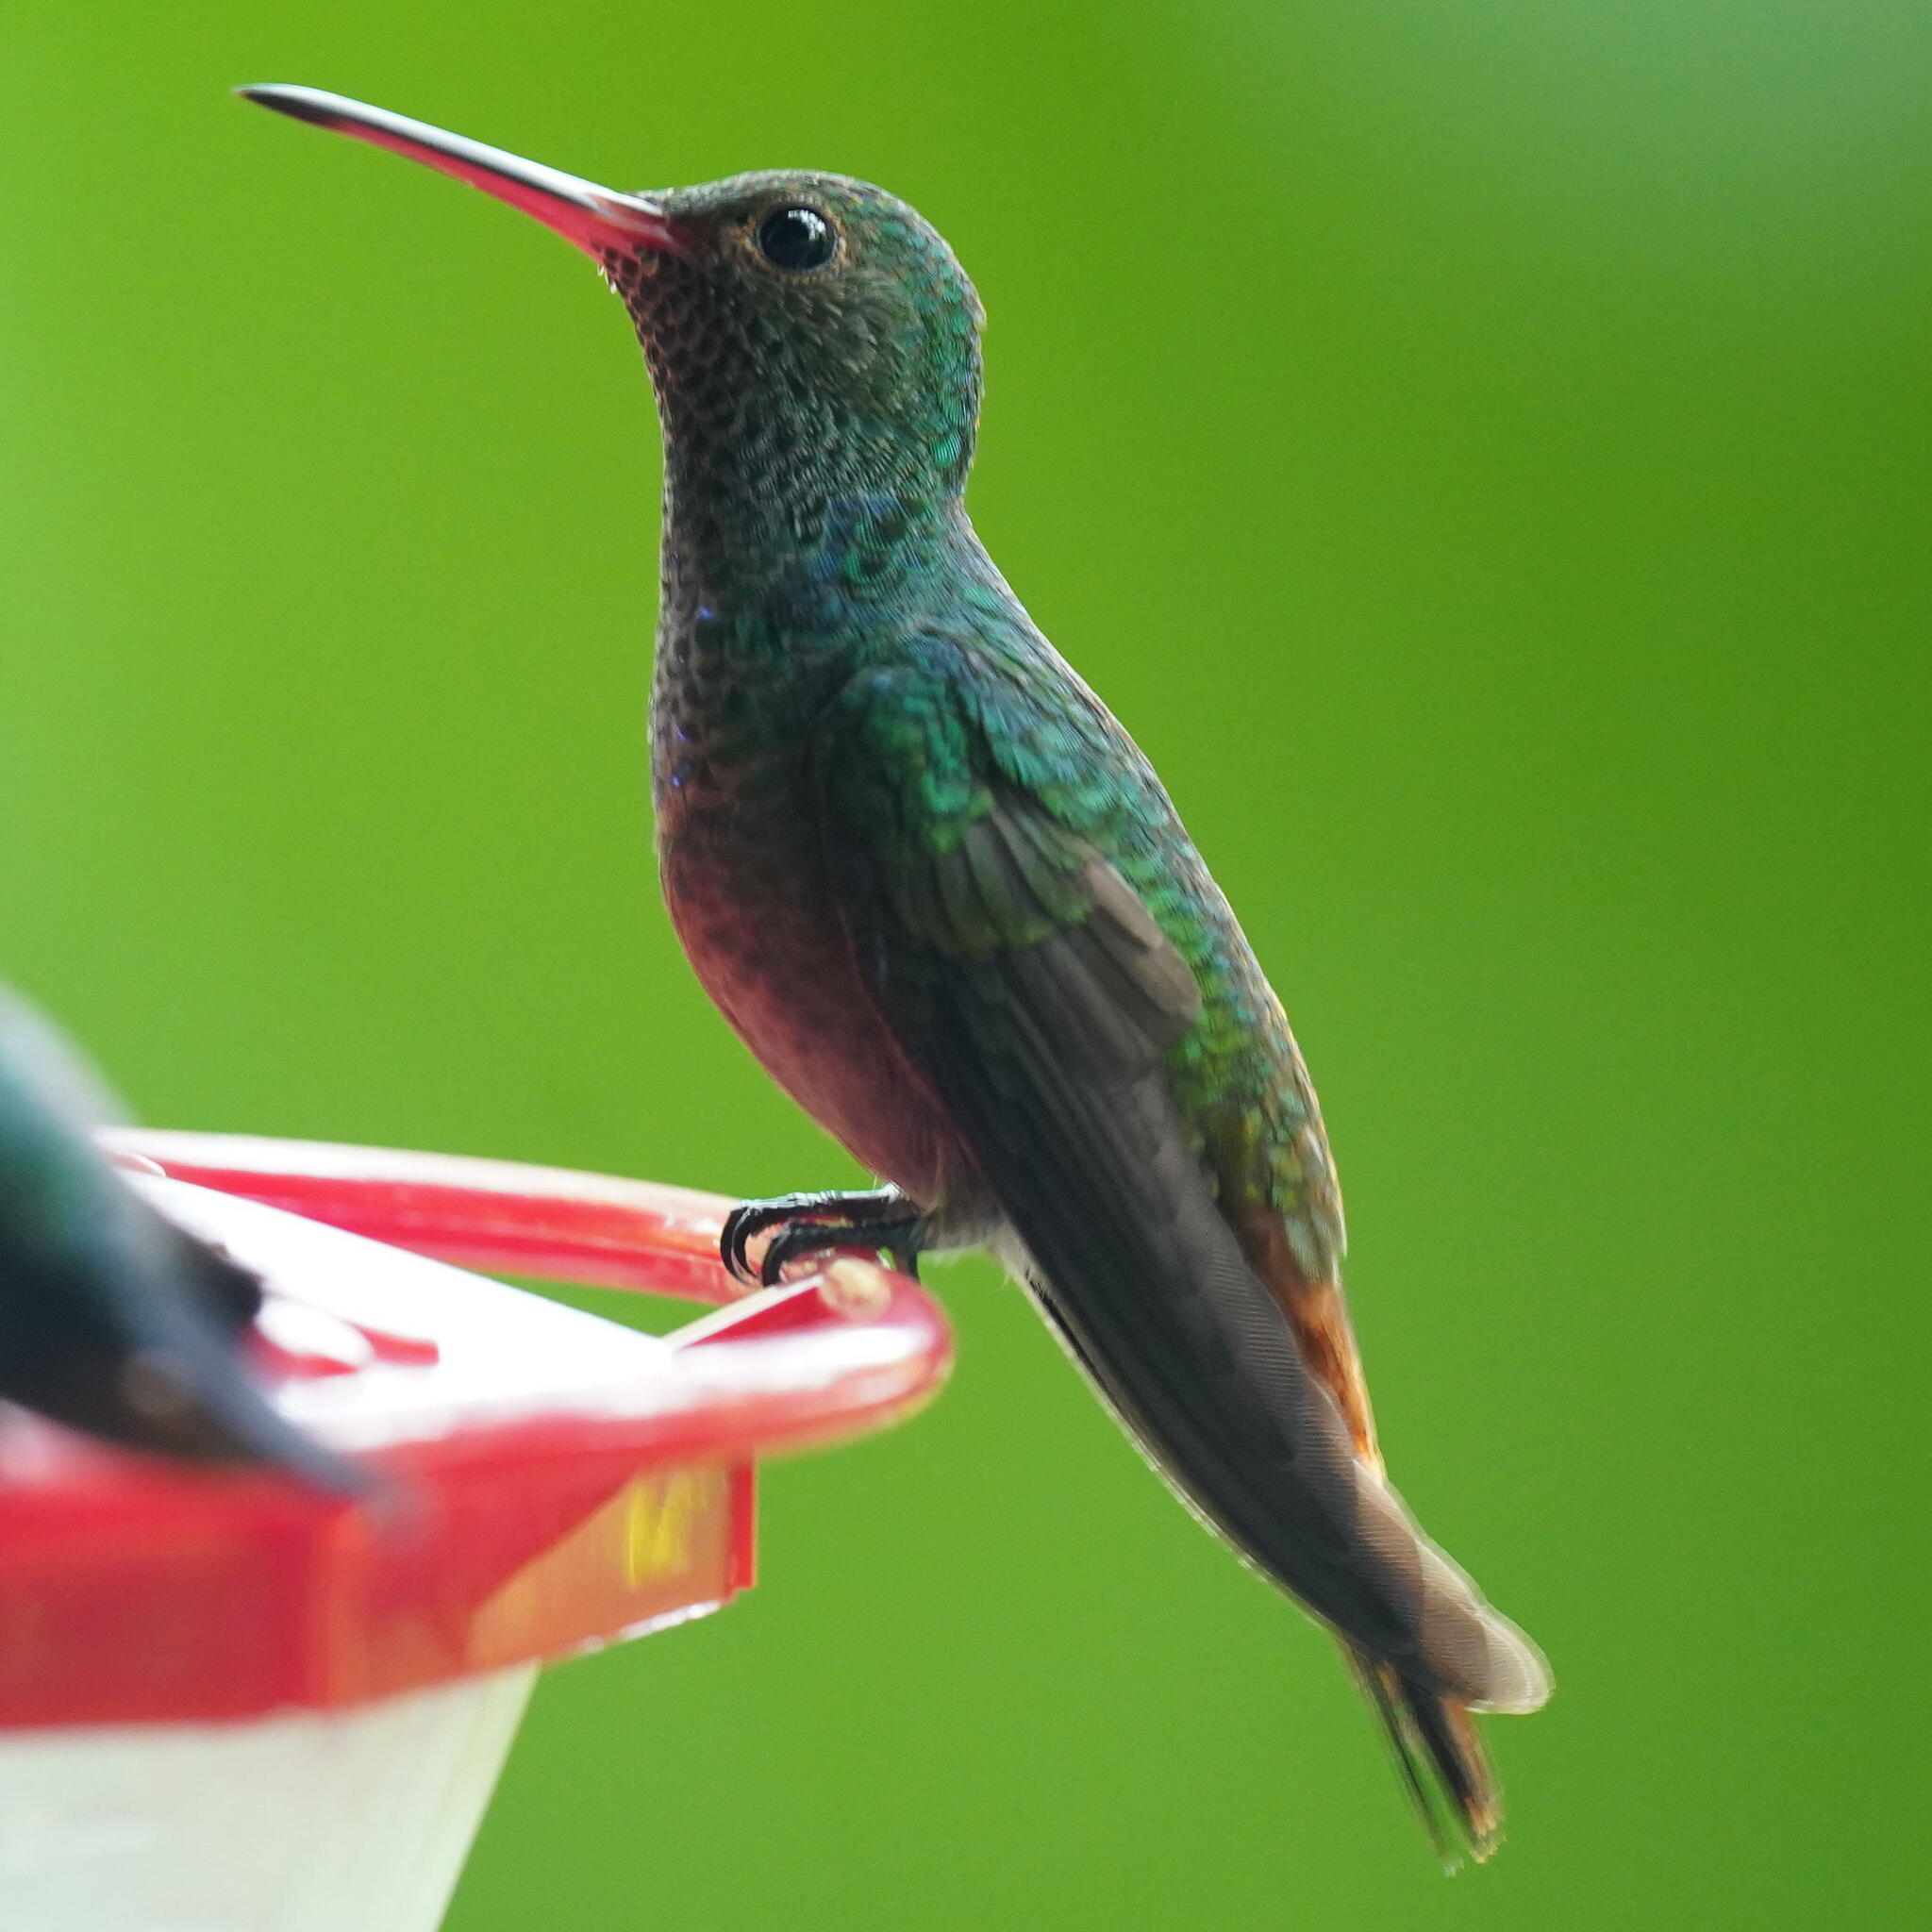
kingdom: Animalia
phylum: Chordata
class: Aves
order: Apodiformes
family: Trochilidae
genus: Amazilia
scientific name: Amazilia tzacatl
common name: Rufous-tailed hummingbird
